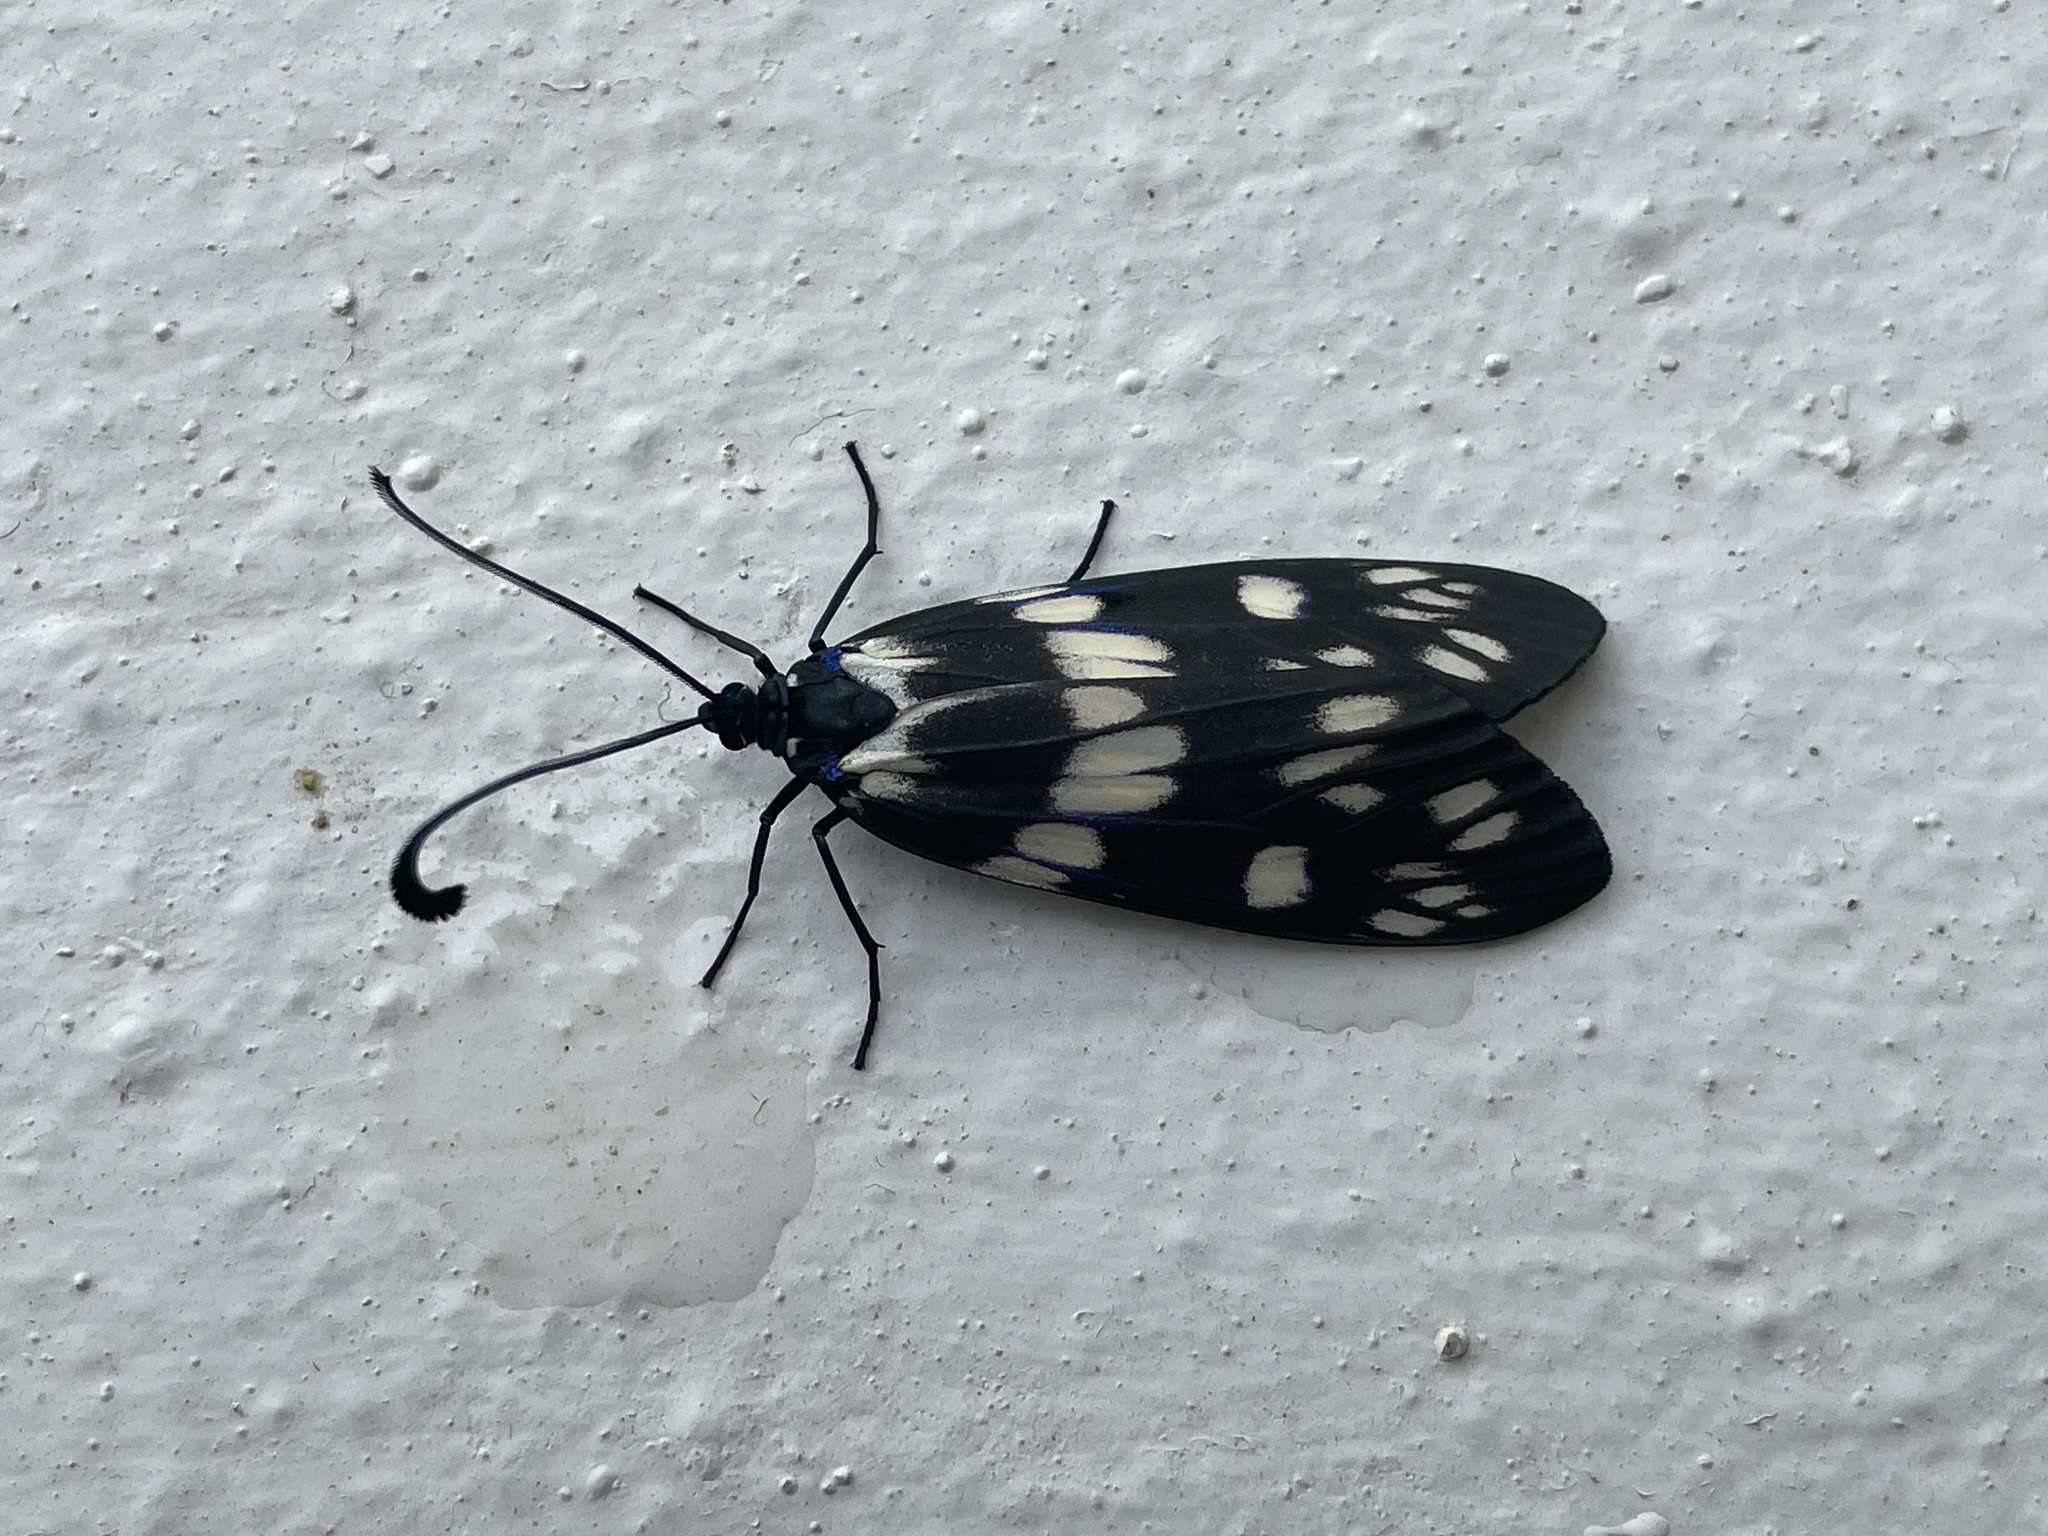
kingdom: Animalia
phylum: Arthropoda
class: Insecta
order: Lepidoptera
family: Zygaenidae
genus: Eterusia
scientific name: Eterusia aedea
